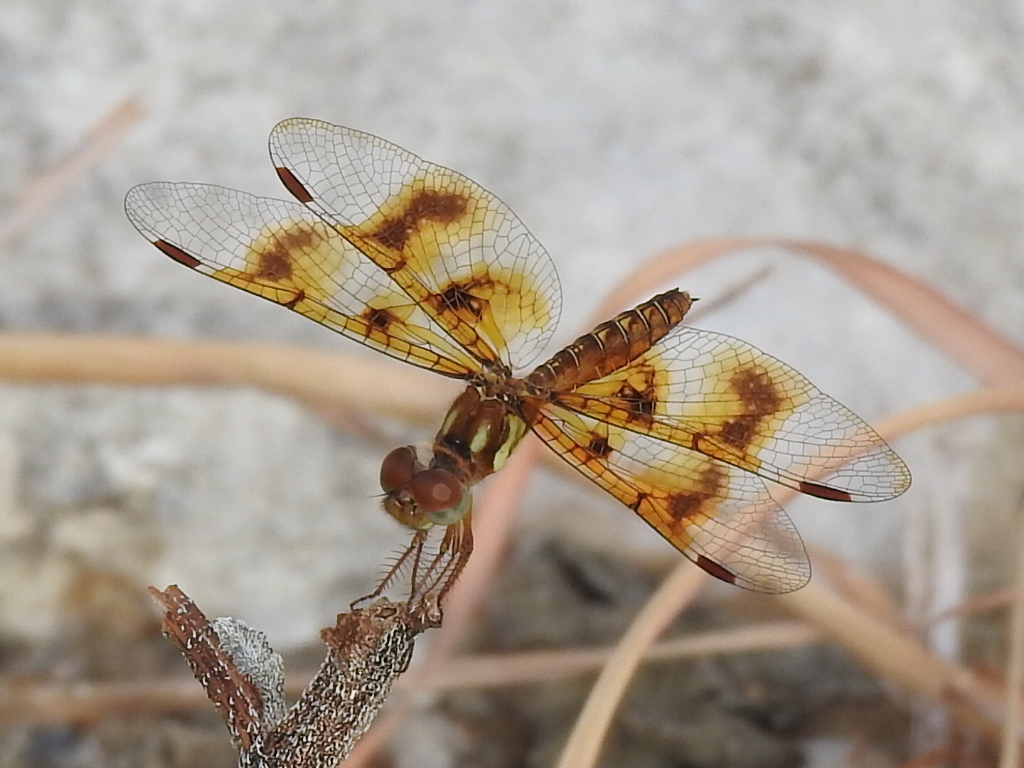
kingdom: Animalia
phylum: Arthropoda
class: Insecta
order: Odonata
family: Libellulidae
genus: Perithemis
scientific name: Perithemis tenera
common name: Eastern amberwing
